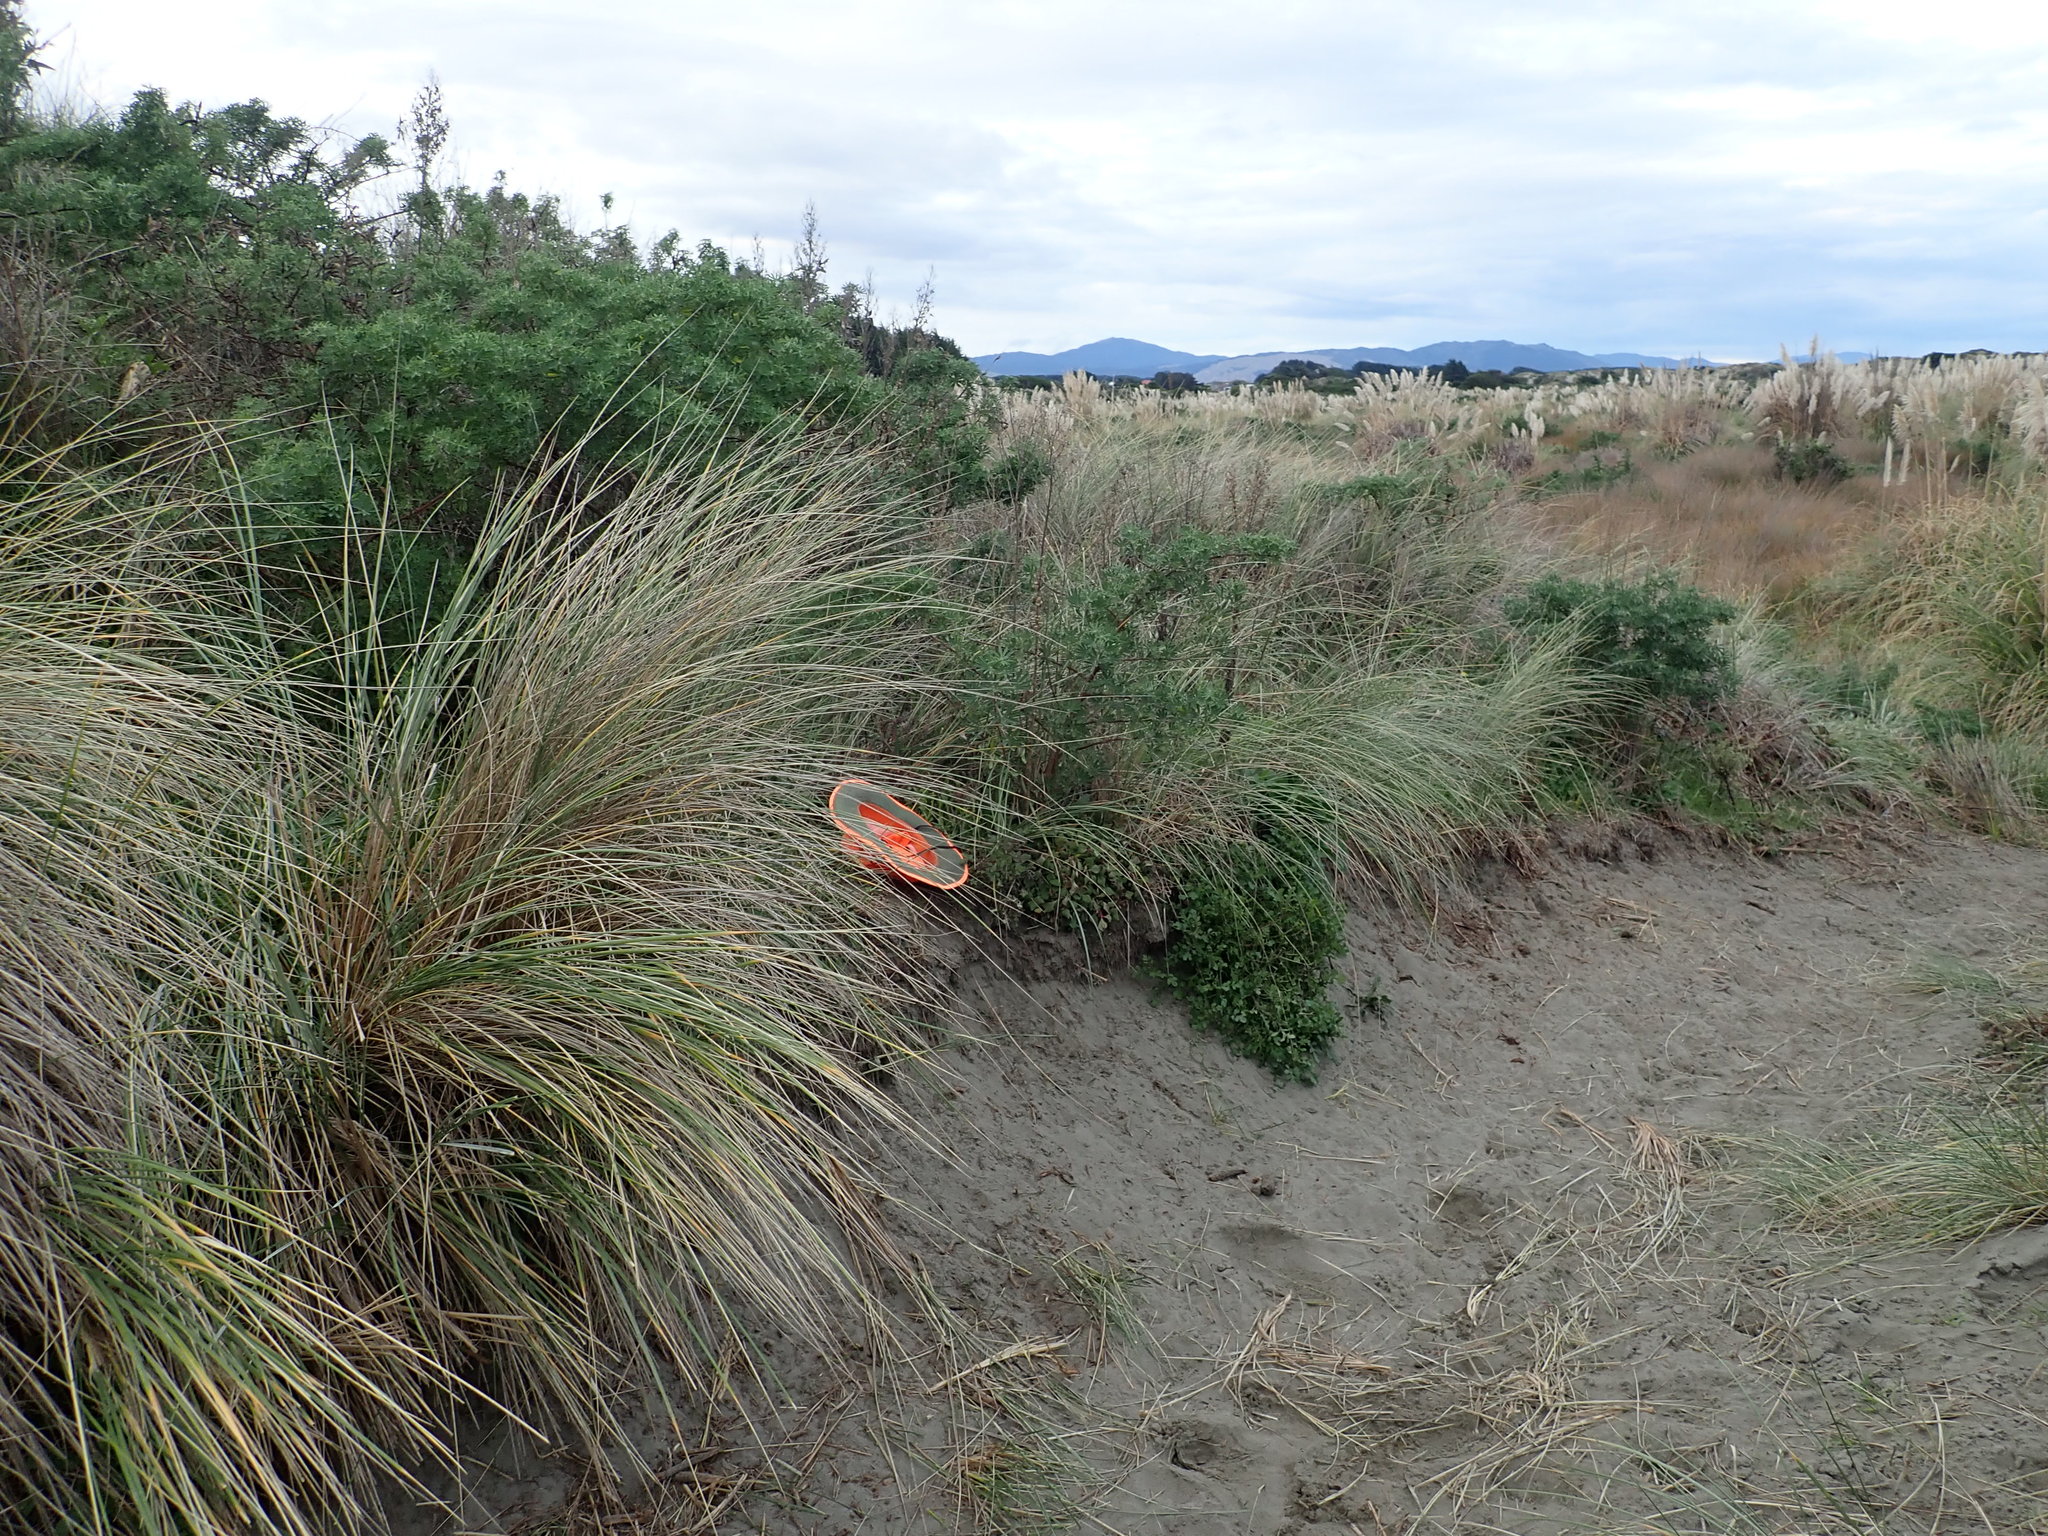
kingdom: Plantae
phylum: Tracheophyta
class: Magnoliopsida
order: Caryophyllales
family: Aizoaceae
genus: Tetragonia
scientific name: Tetragonia implexicoma
